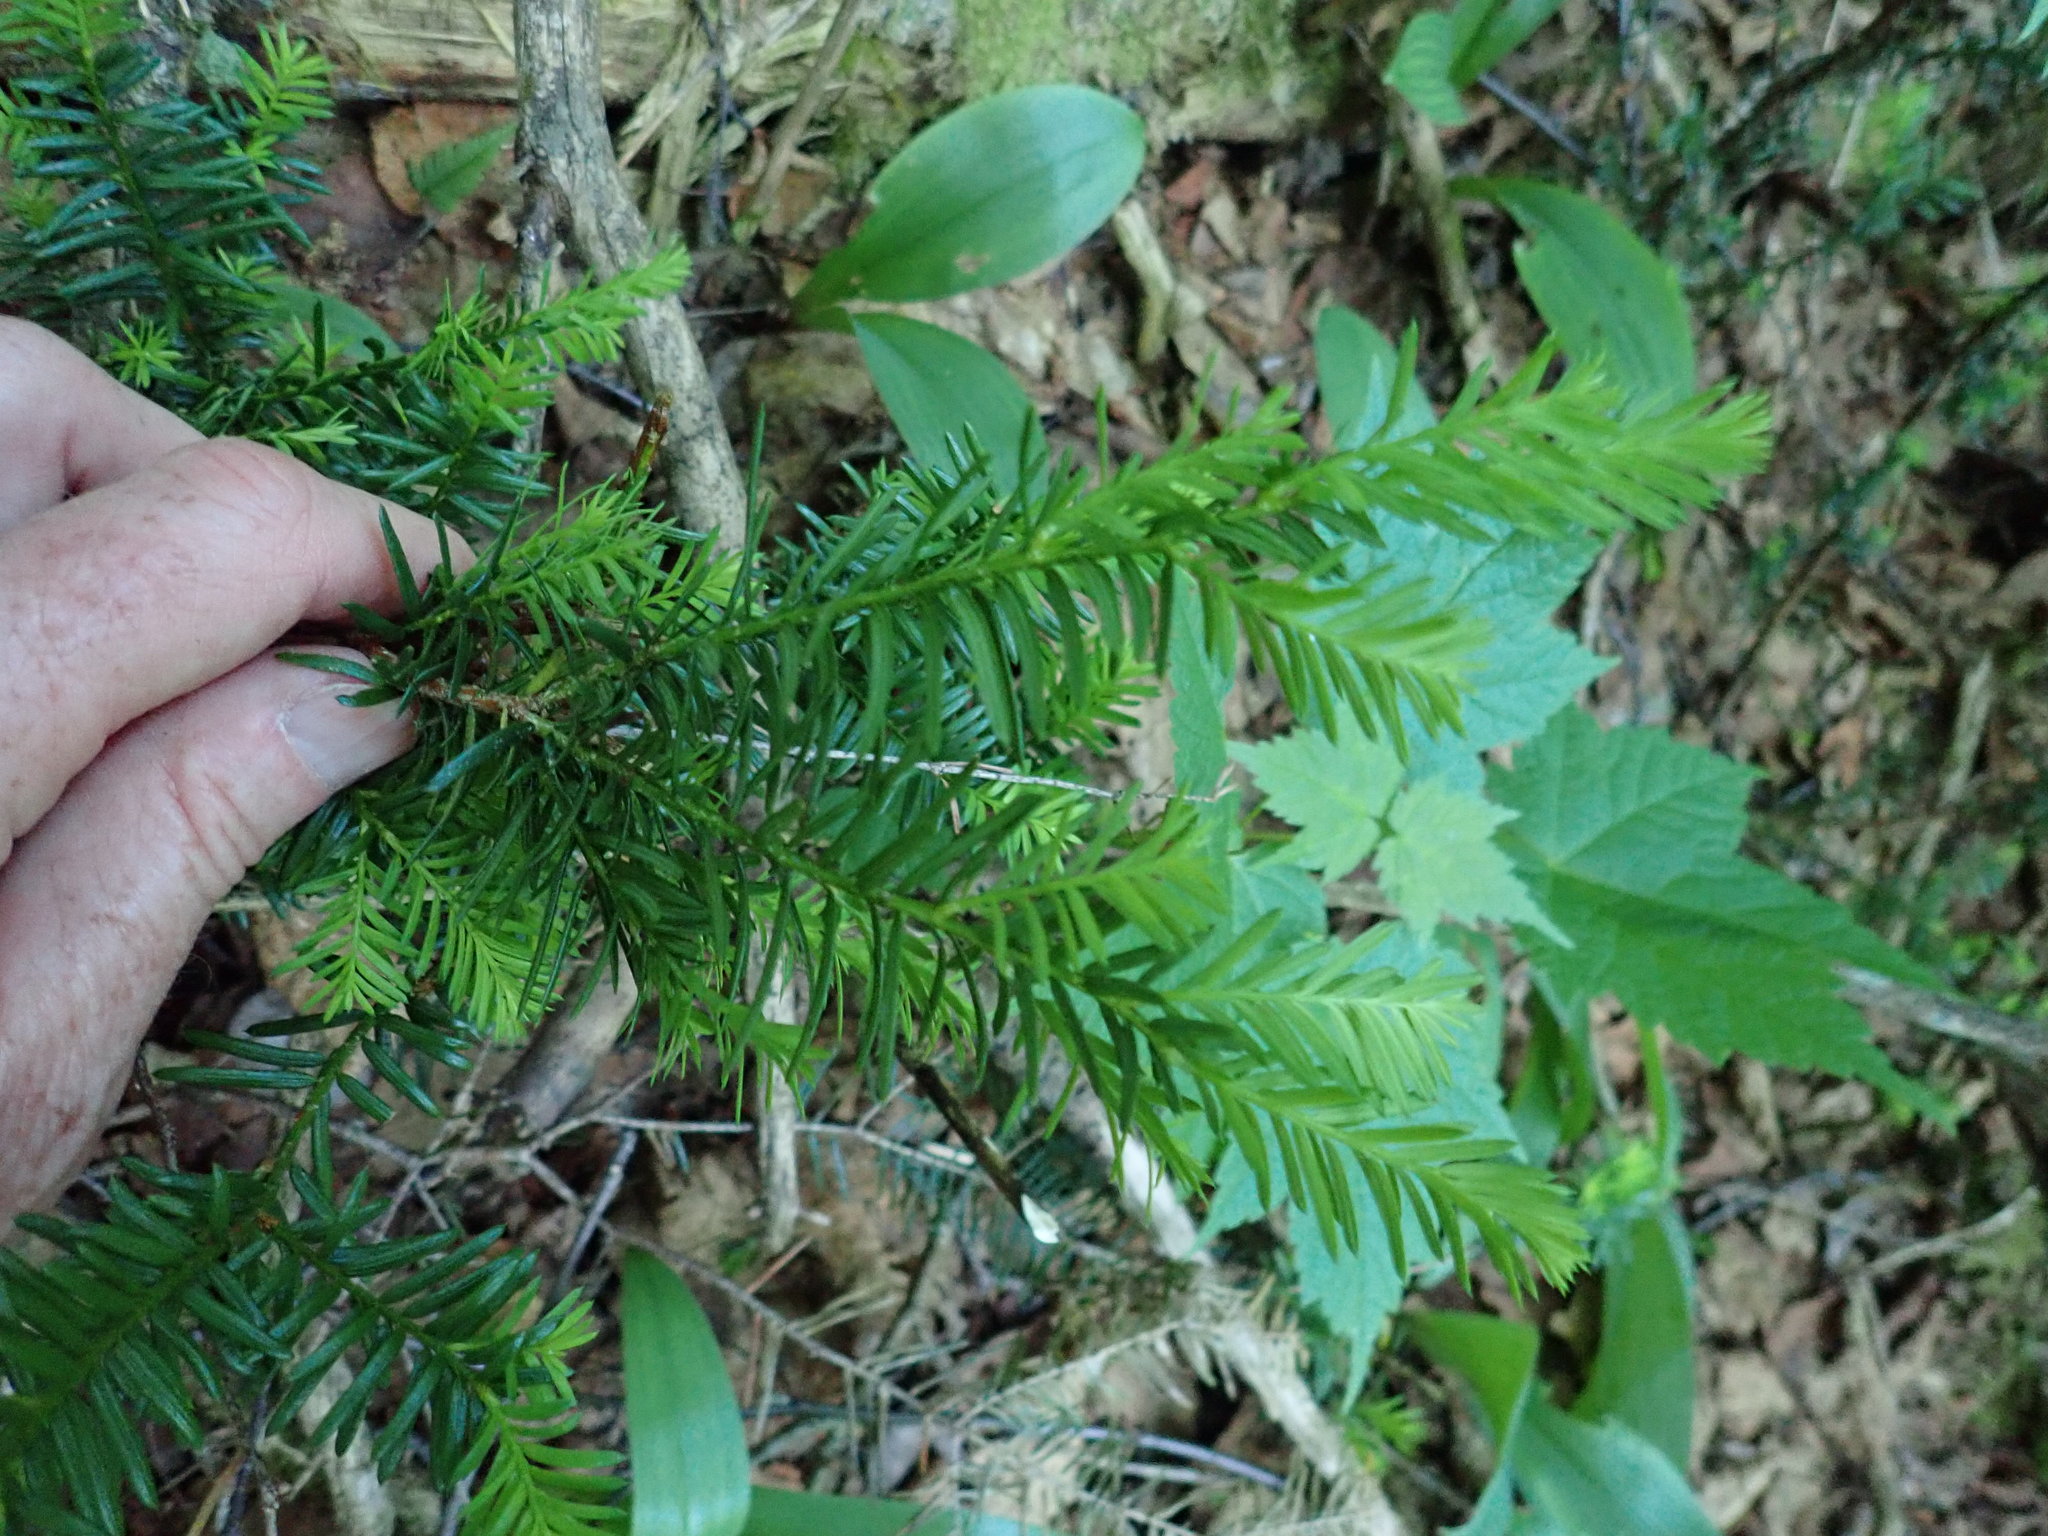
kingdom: Plantae
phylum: Tracheophyta
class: Pinopsida
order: Pinales
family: Taxaceae
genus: Taxus
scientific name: Taxus canadensis
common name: American yew
